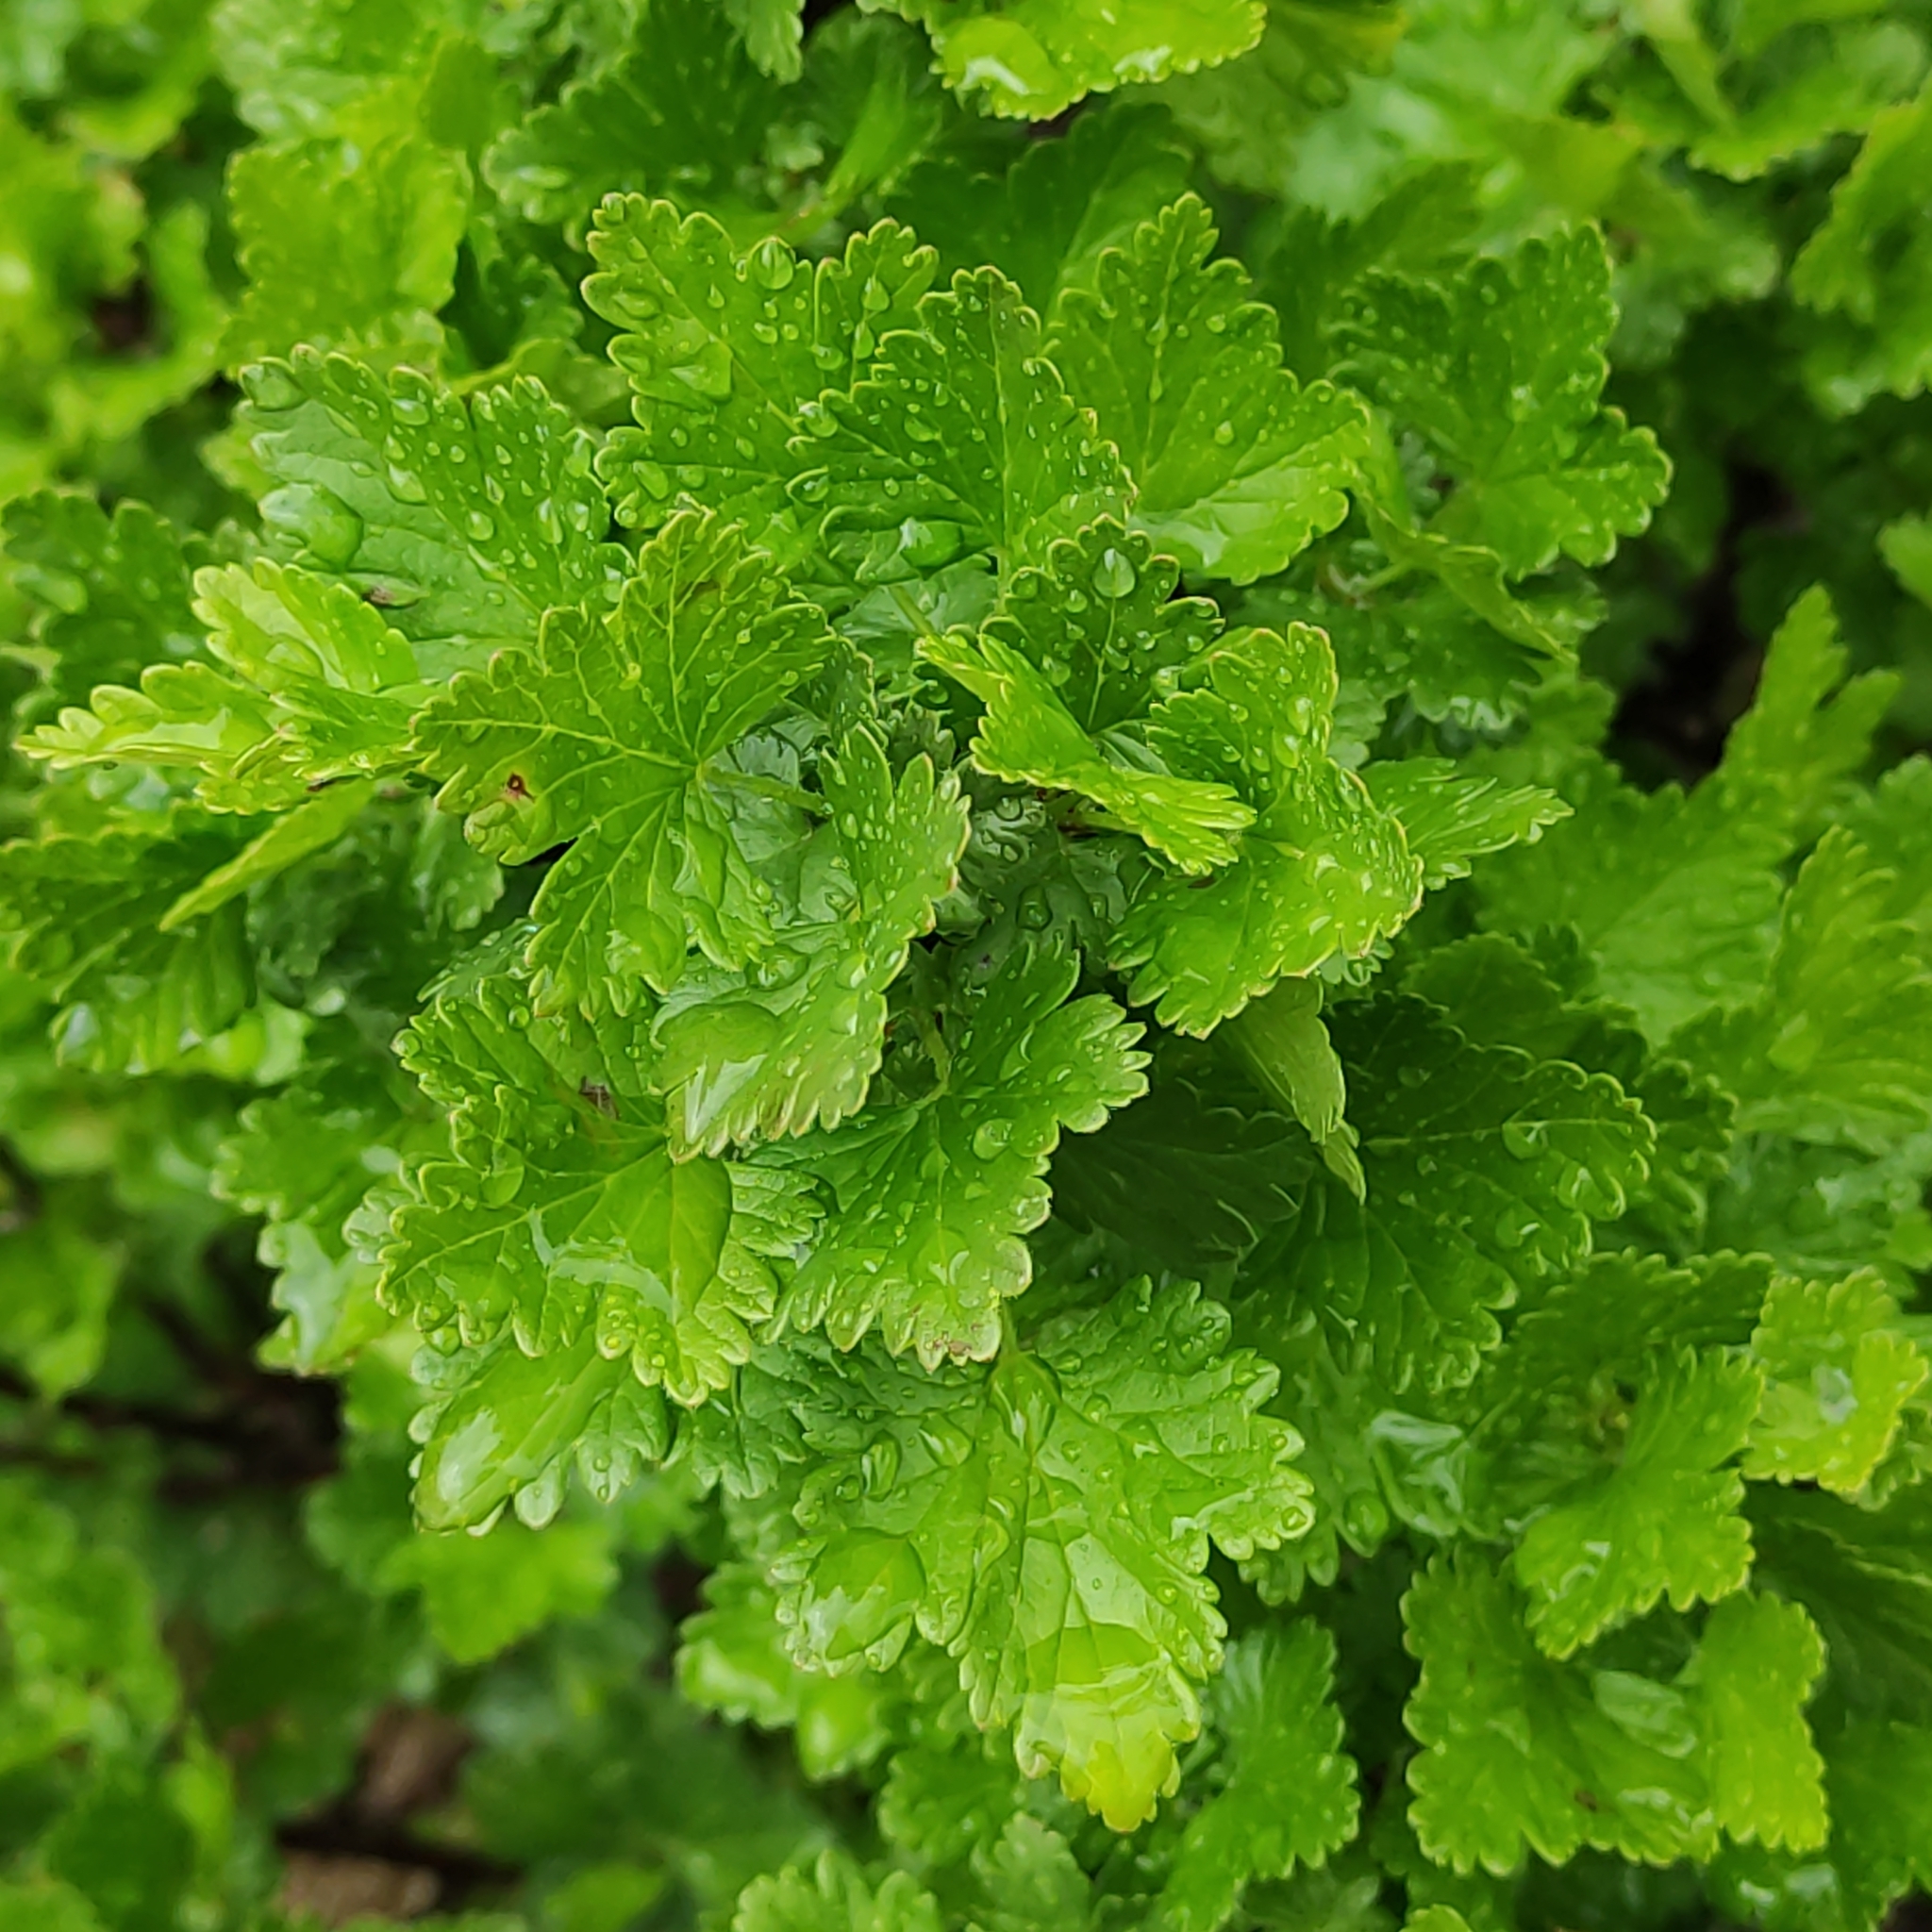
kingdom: Plantae
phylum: Tracheophyta
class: Magnoliopsida
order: Saxifragales
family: Grossulariaceae
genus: Ribes
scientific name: Ribes uva-crispa
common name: Gooseberry
